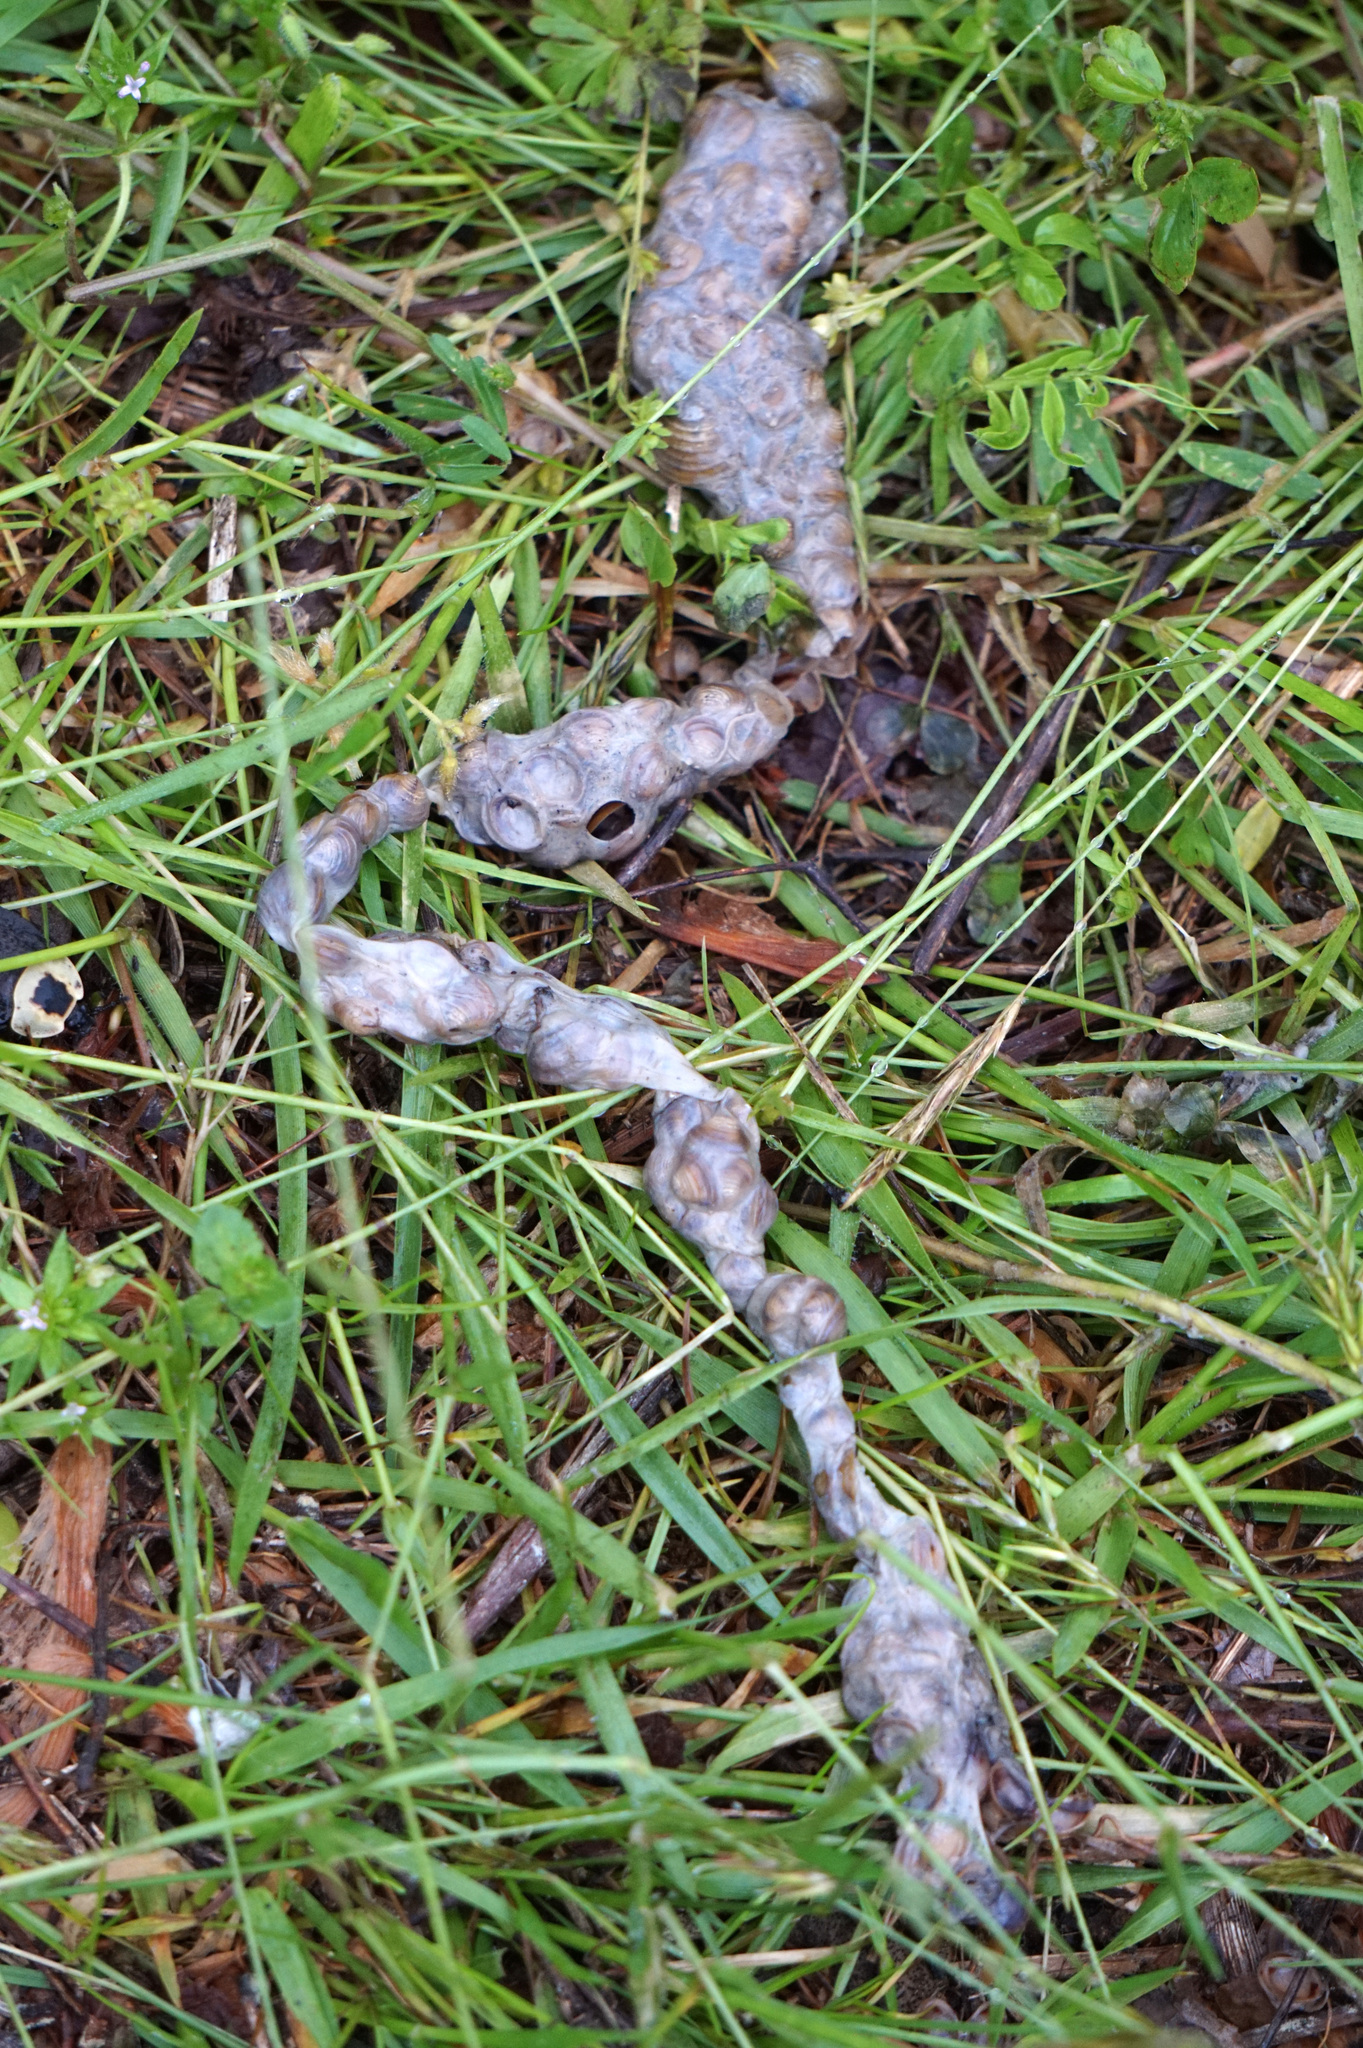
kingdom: Animalia
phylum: Mollusca
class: Bivalvia
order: Venerida
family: Cyrenidae
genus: Corbicula
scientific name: Corbicula fluminea
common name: Asian clam
